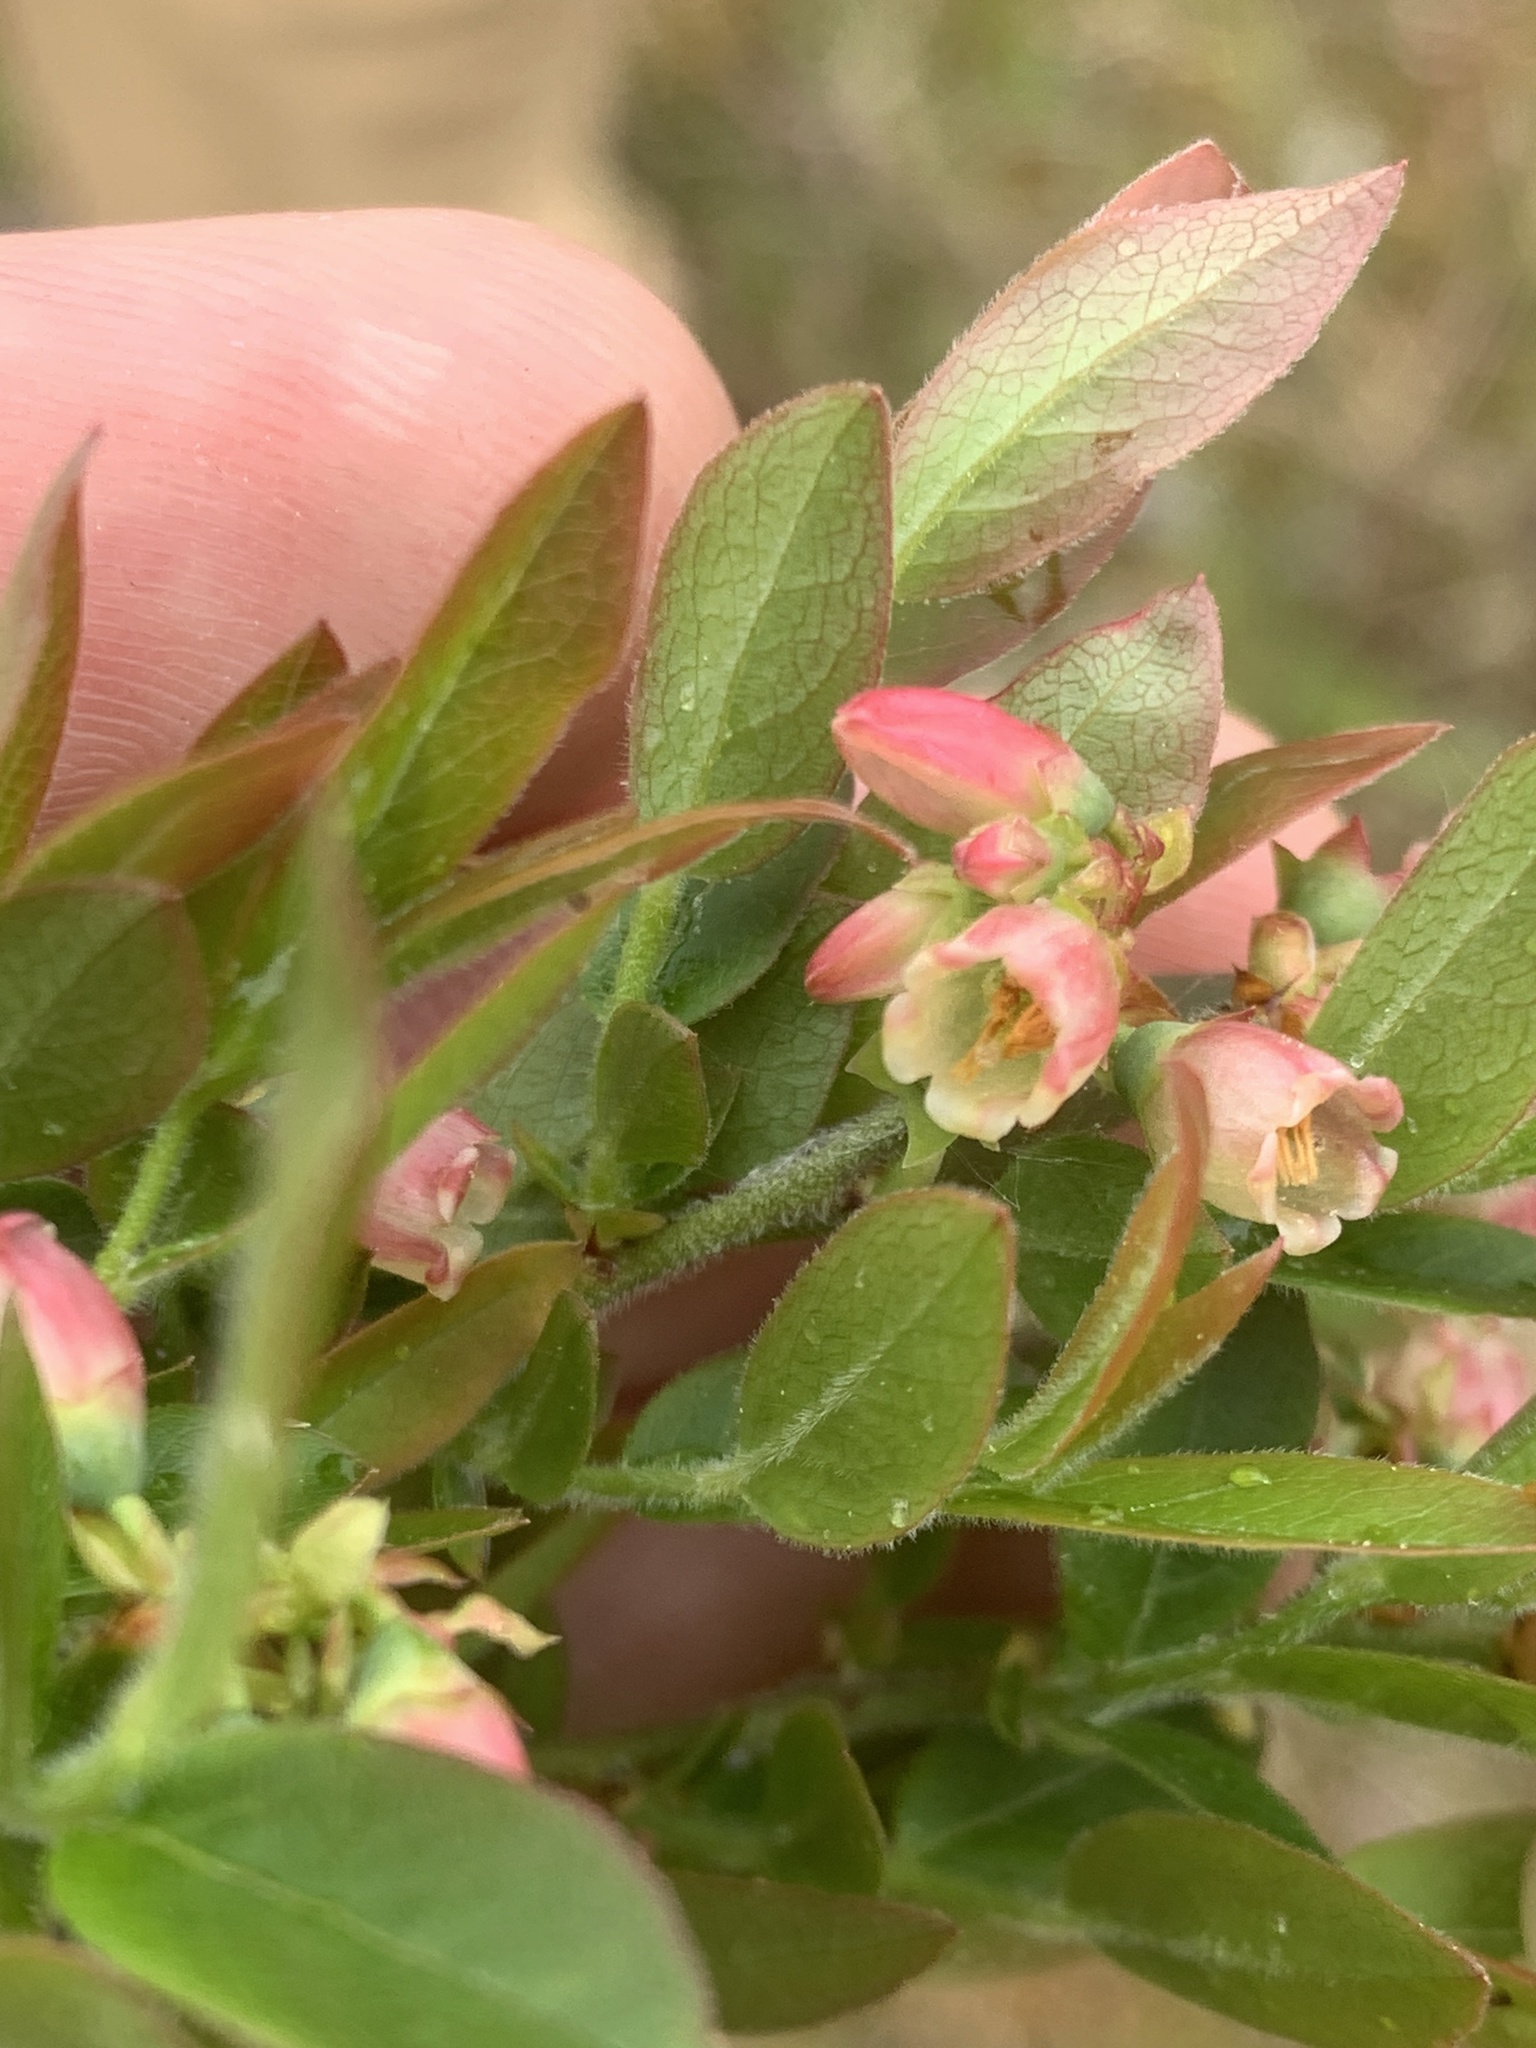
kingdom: Plantae
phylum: Tracheophyta
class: Magnoliopsida
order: Ericales
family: Ericaceae
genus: Vaccinium
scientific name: Vaccinium myrtilloides
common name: Canada blueberry
